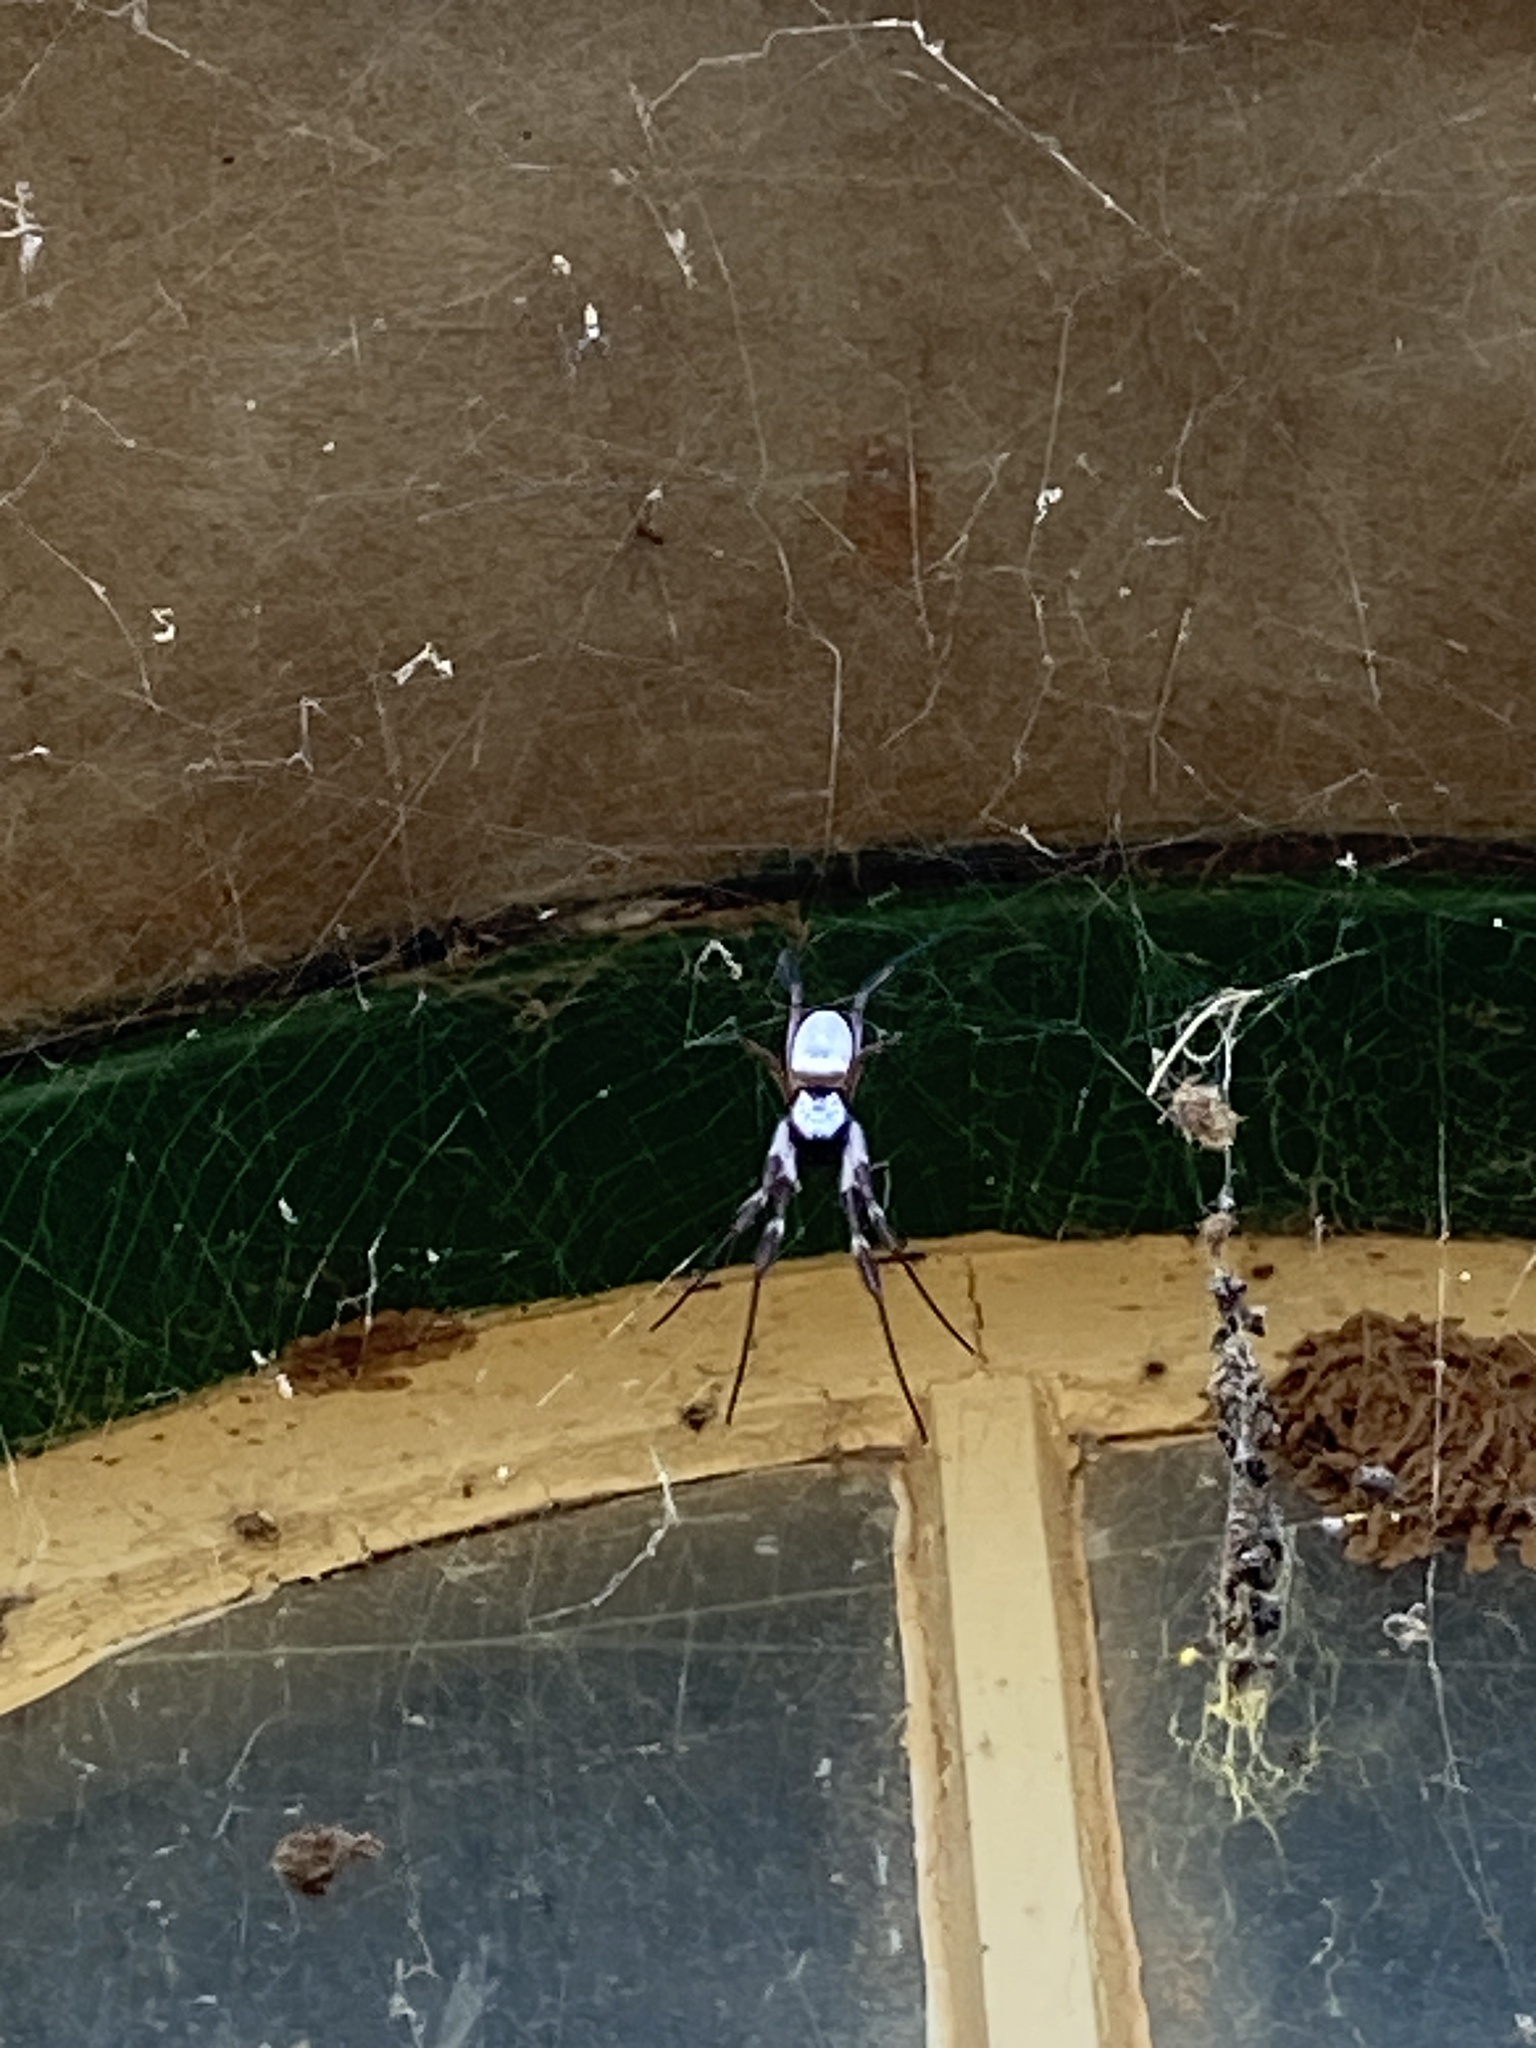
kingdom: Animalia
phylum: Arthropoda
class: Arachnida
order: Araneae
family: Araneidae
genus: Trichonephila
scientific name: Trichonephila edulis
